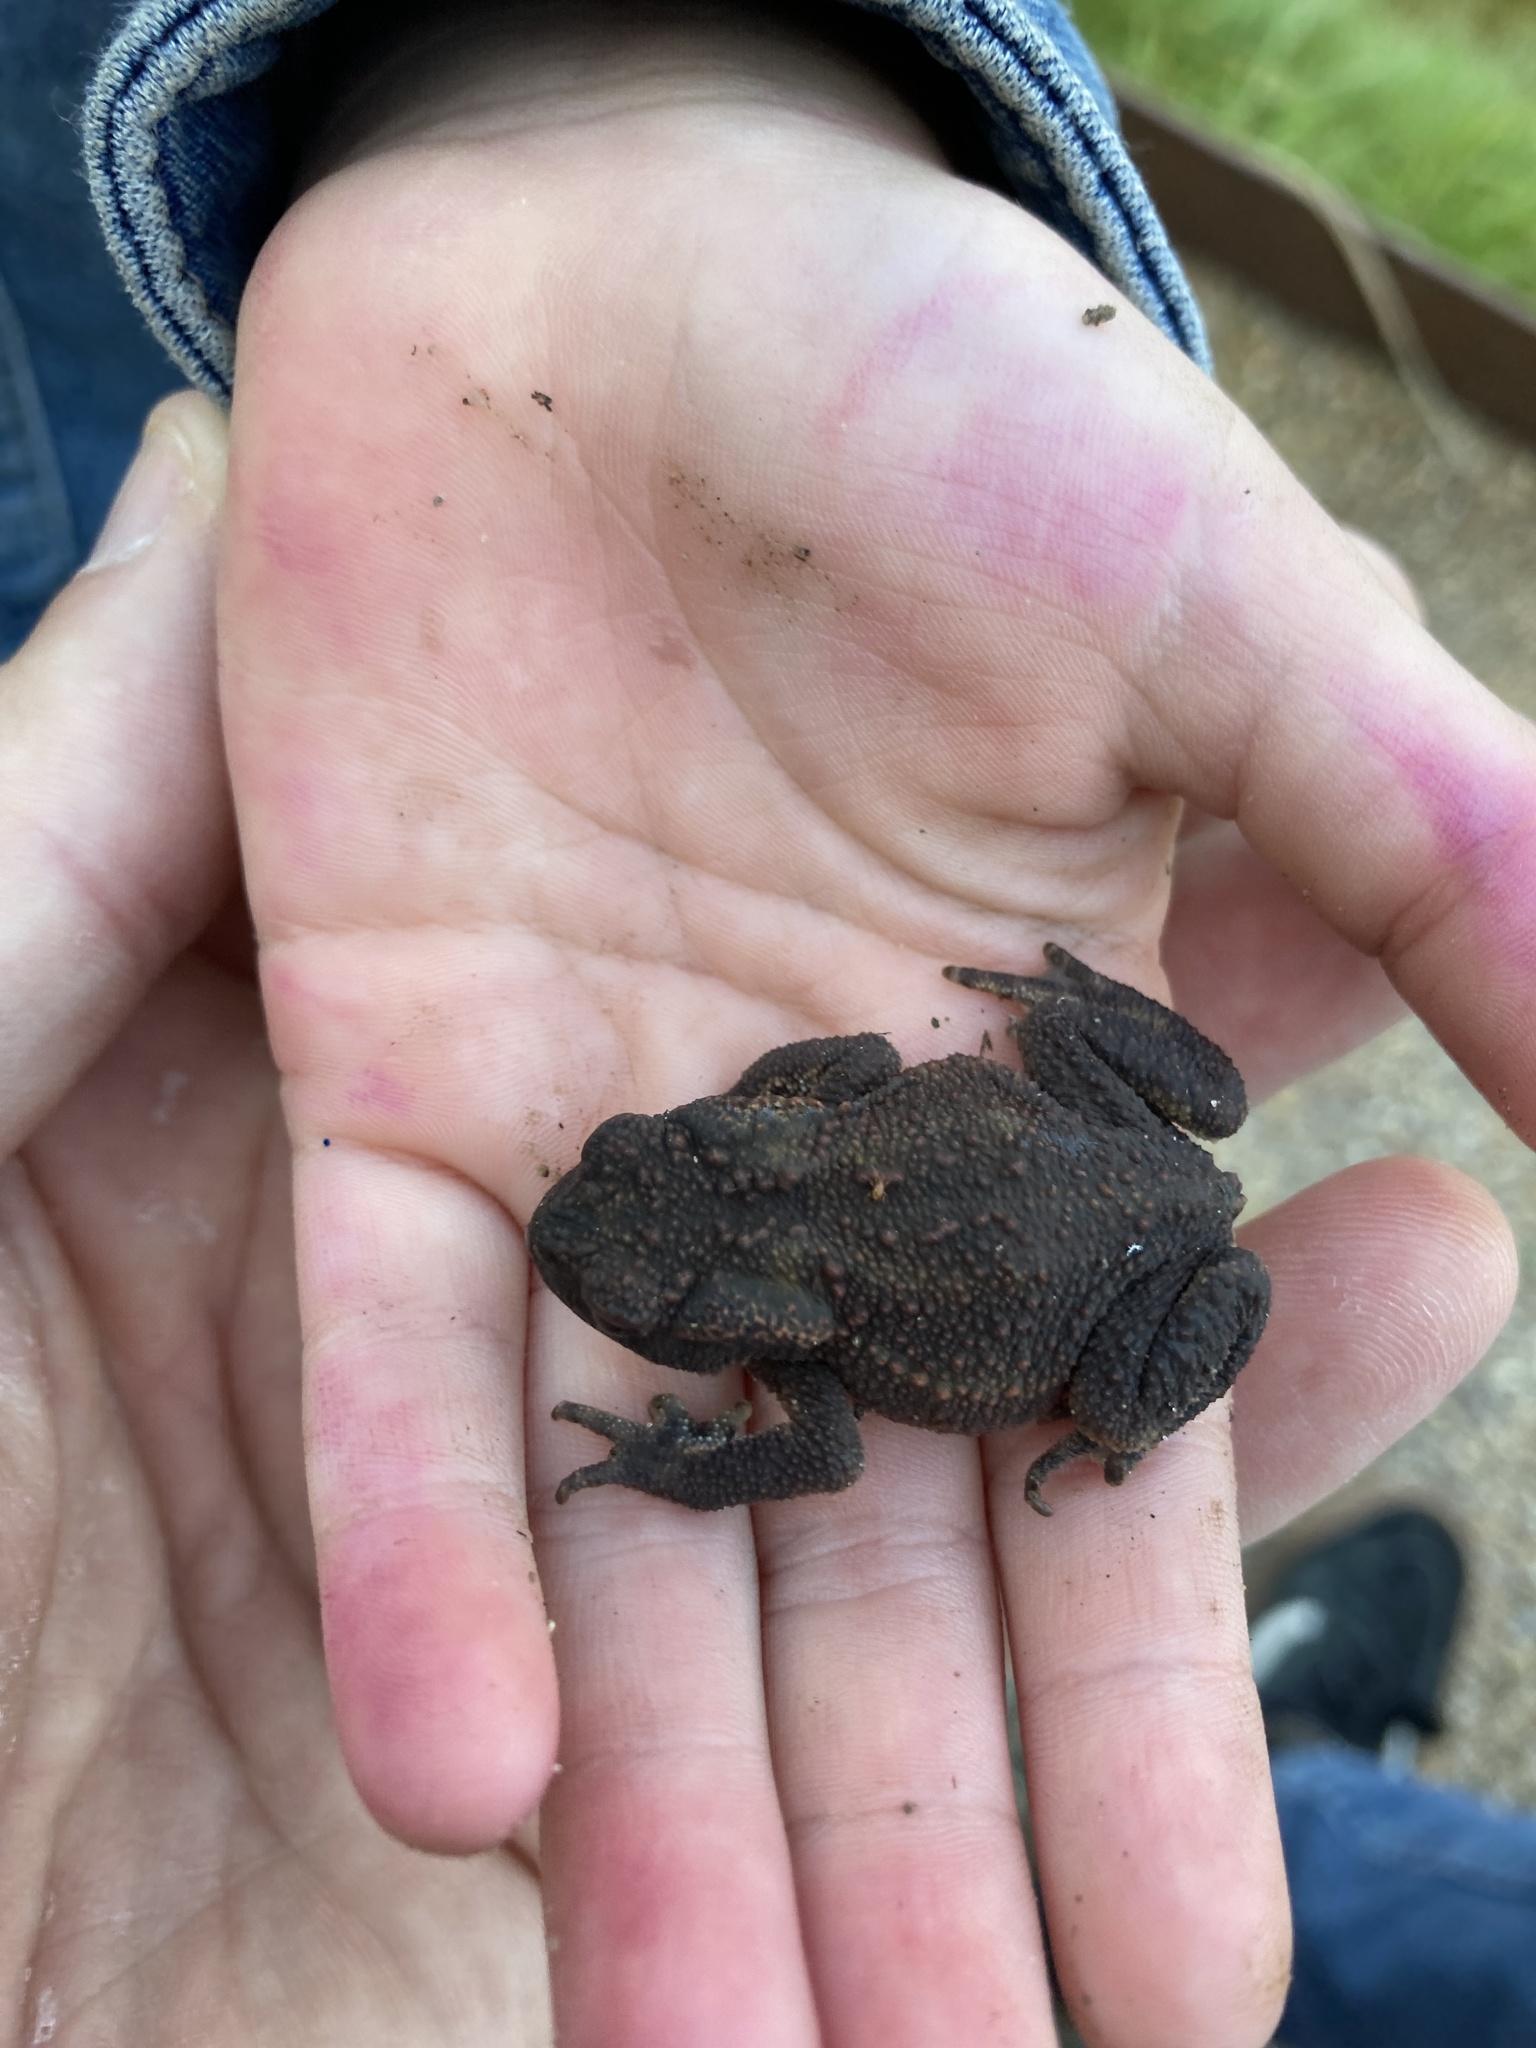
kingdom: Animalia
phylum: Chordata
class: Amphibia
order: Anura
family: Bufonidae
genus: Bufo
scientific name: Bufo bufo
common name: Common toad
